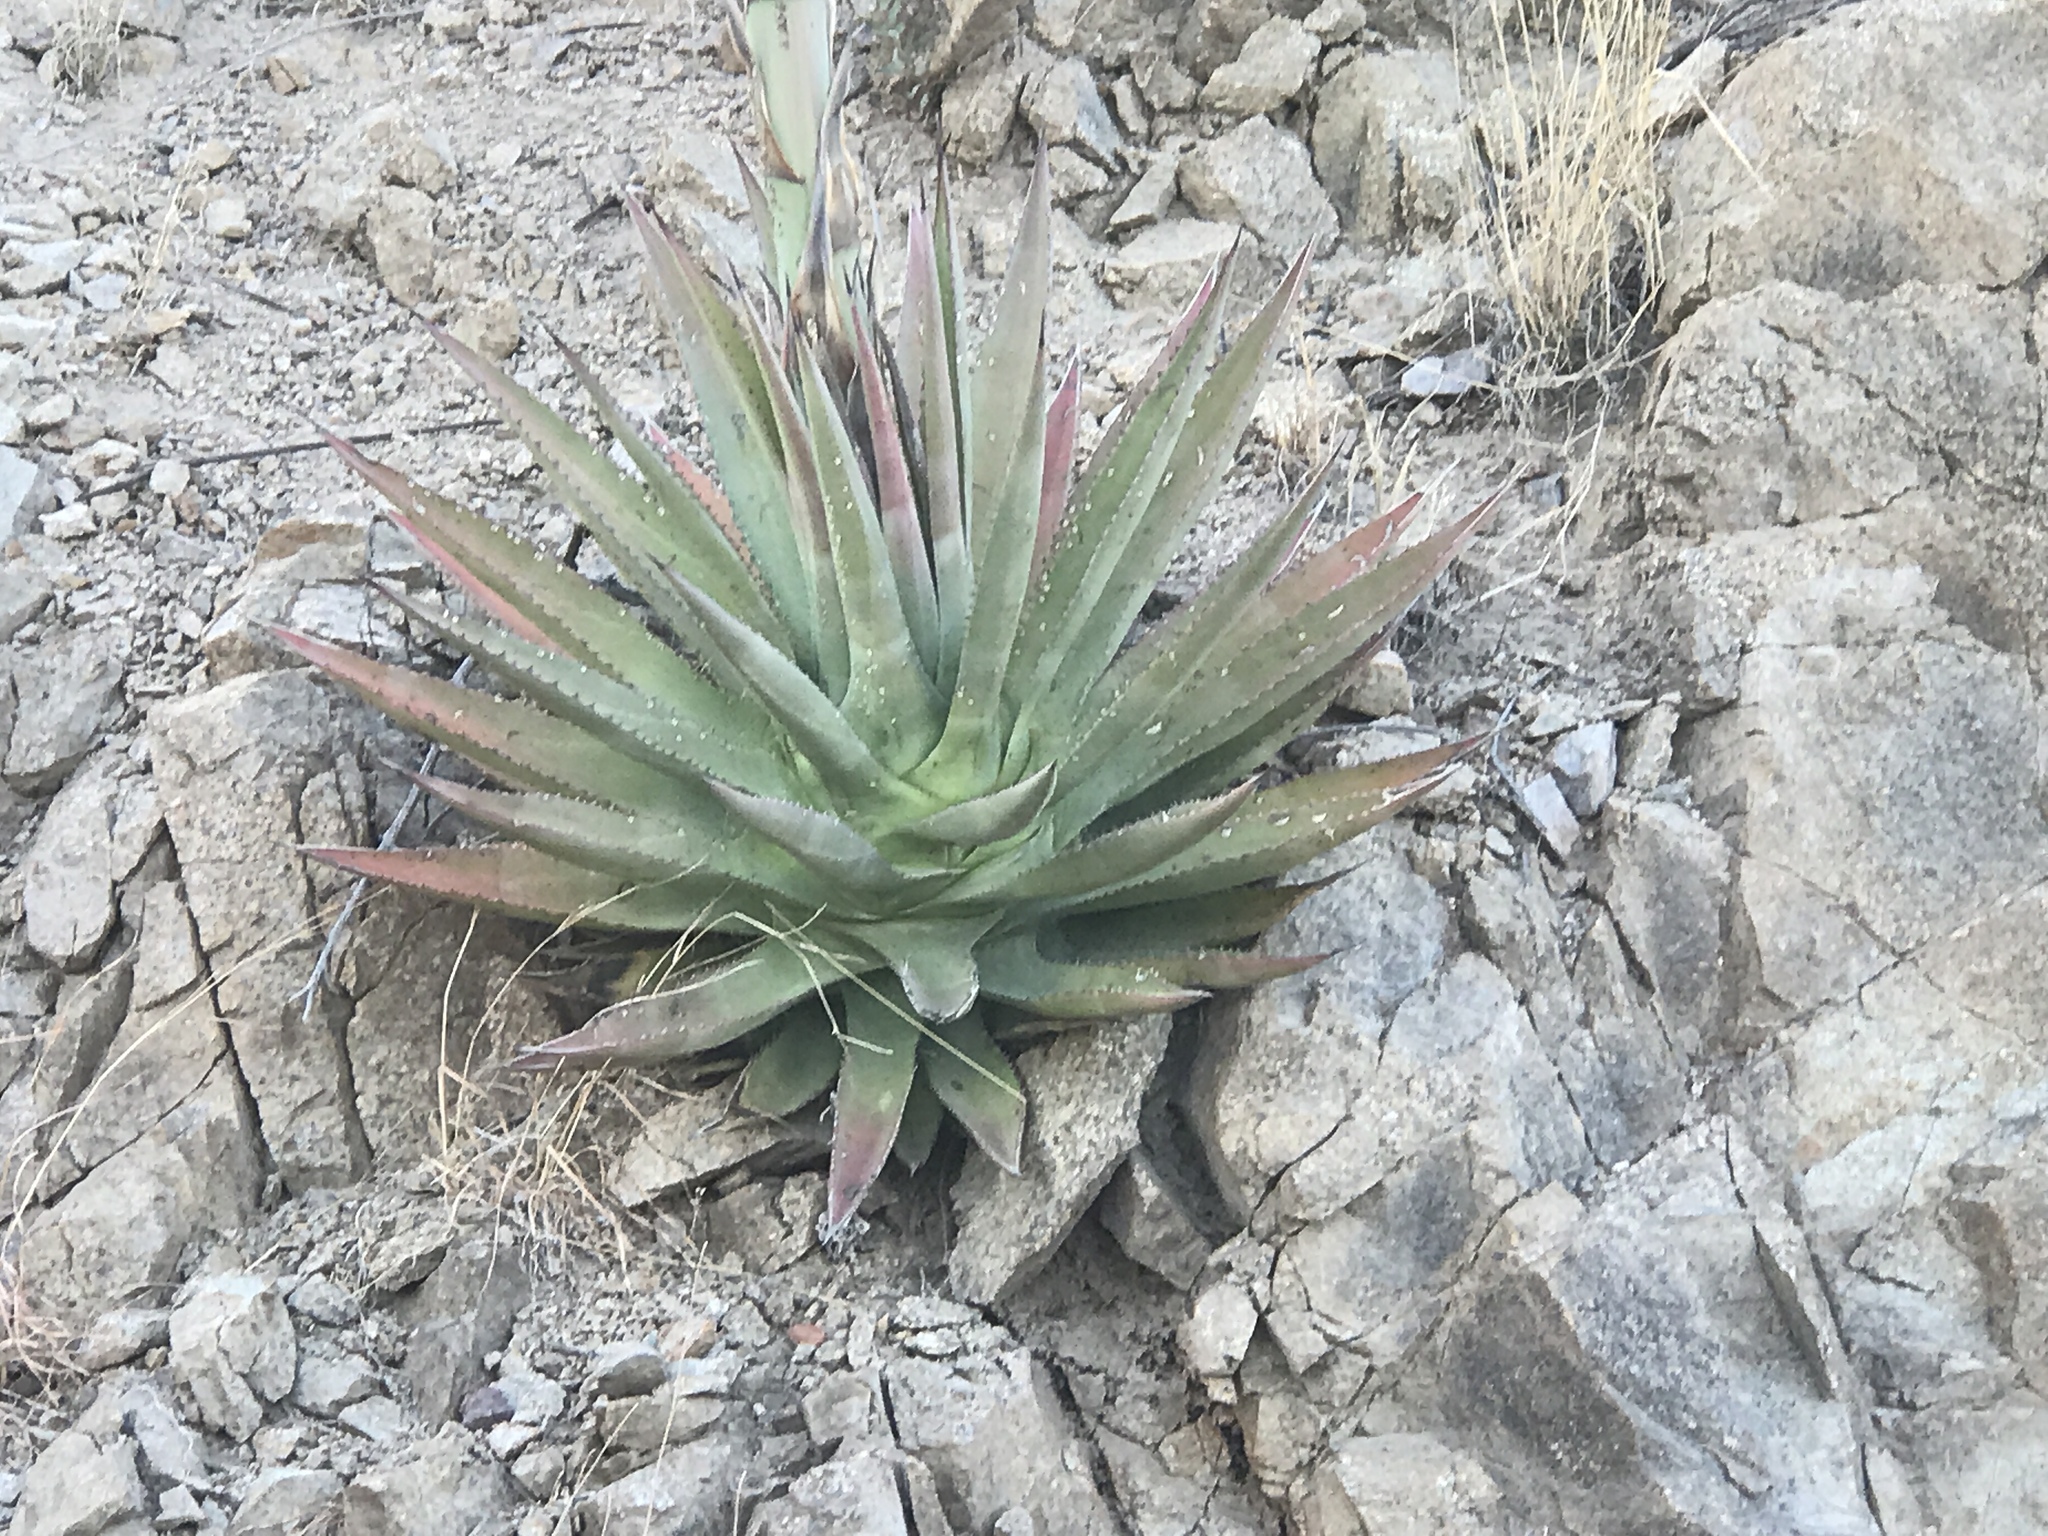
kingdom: Plantae
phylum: Tracheophyta
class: Liliopsida
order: Asparagales
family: Asparagaceae
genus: Agave
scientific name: Agave palmeri
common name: Palmer agave
